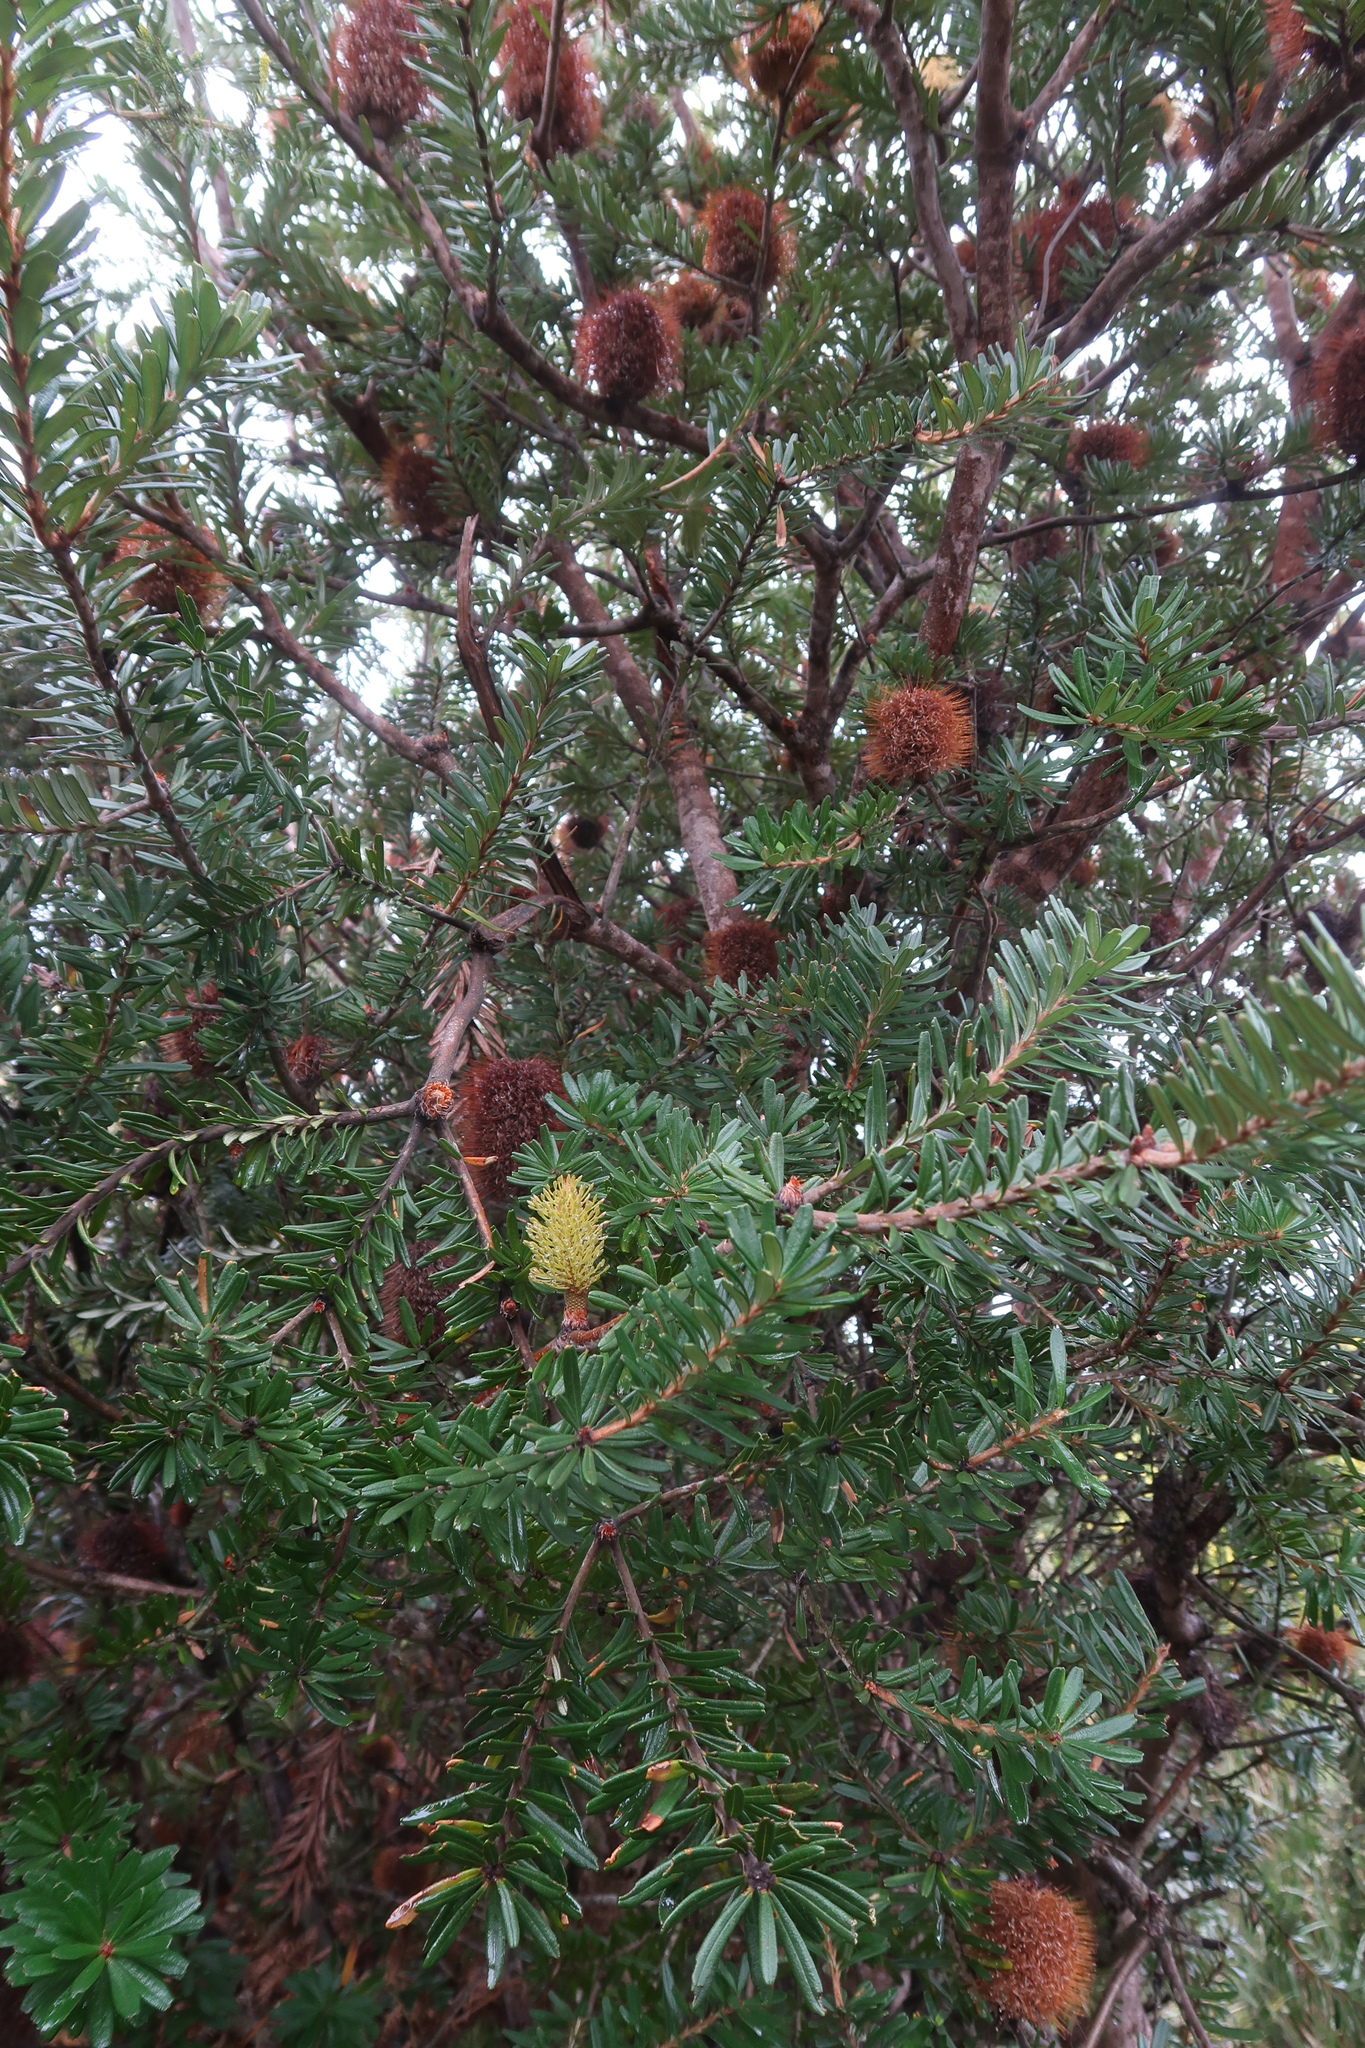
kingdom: Plantae
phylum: Tracheophyta
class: Magnoliopsida
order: Proteales
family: Proteaceae
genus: Banksia
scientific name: Banksia marginata
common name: Silver banksia
